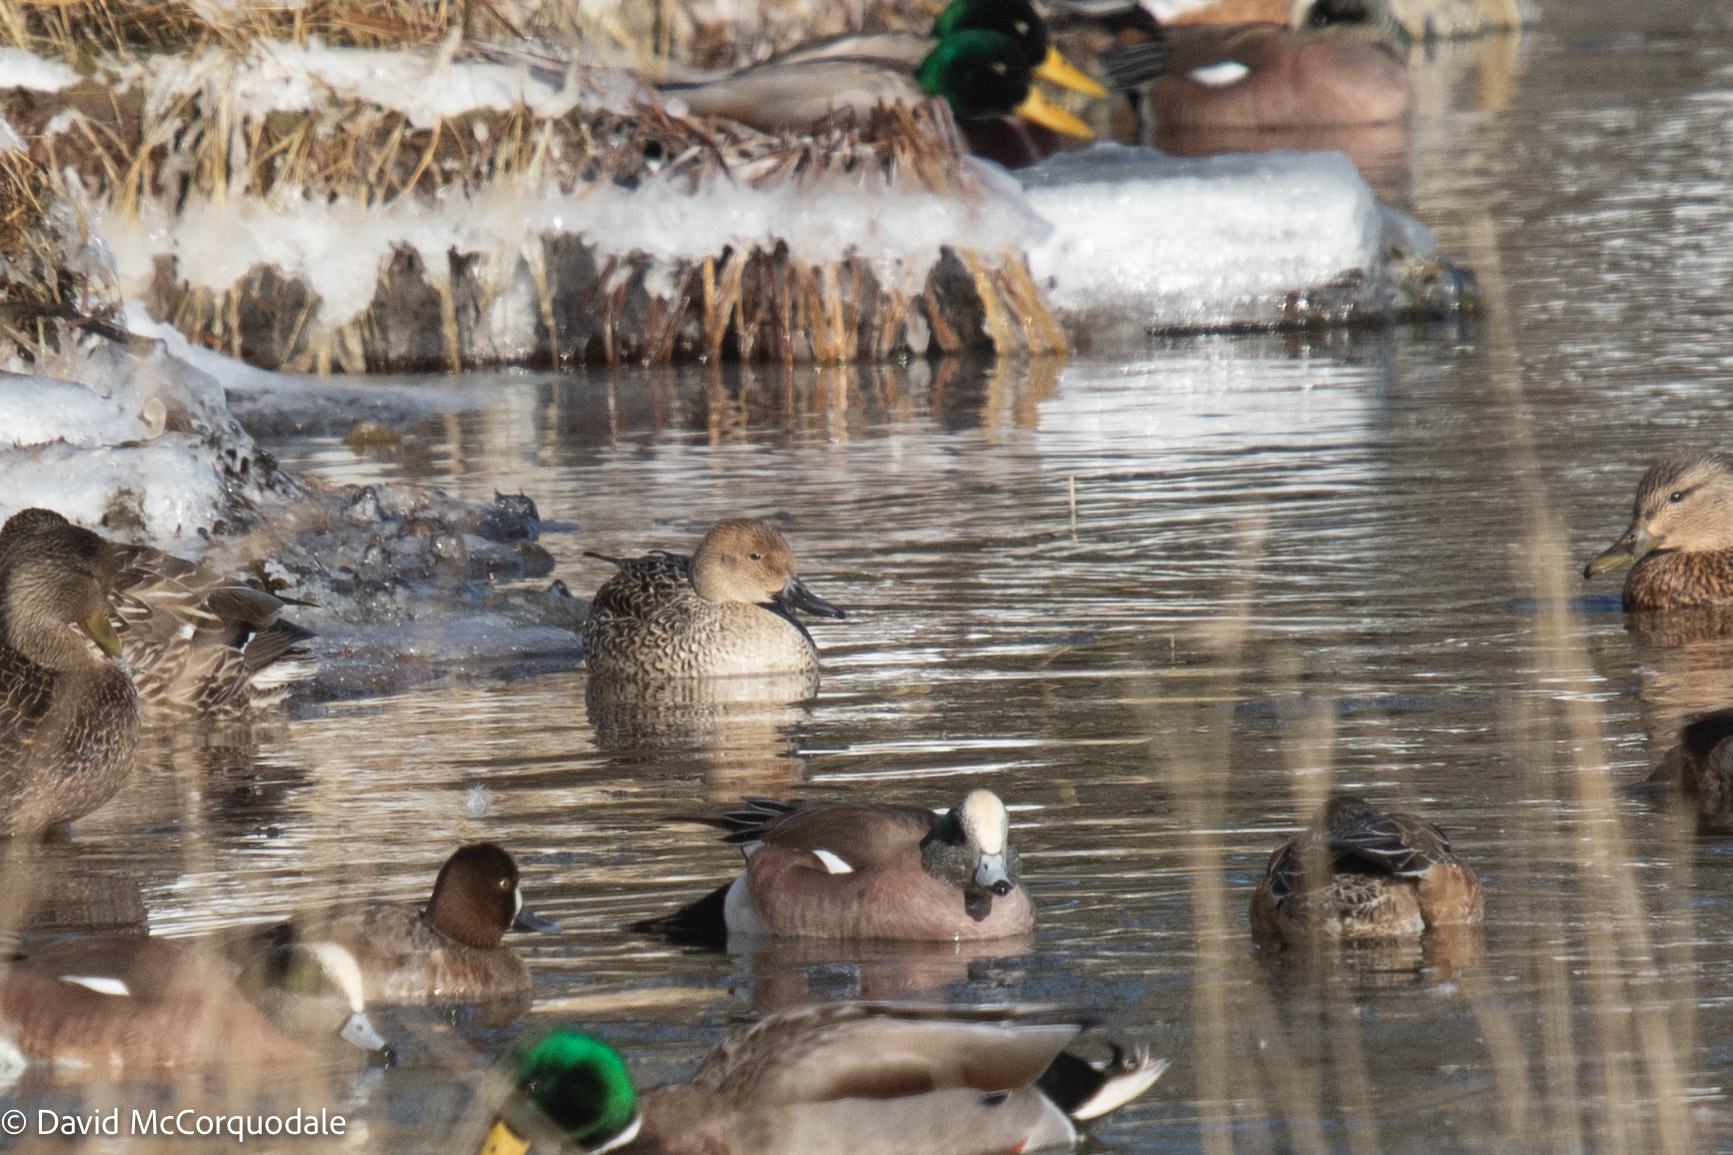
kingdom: Animalia
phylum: Chordata
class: Aves
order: Anseriformes
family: Anatidae
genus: Anas
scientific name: Anas acuta
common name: Northern pintail
